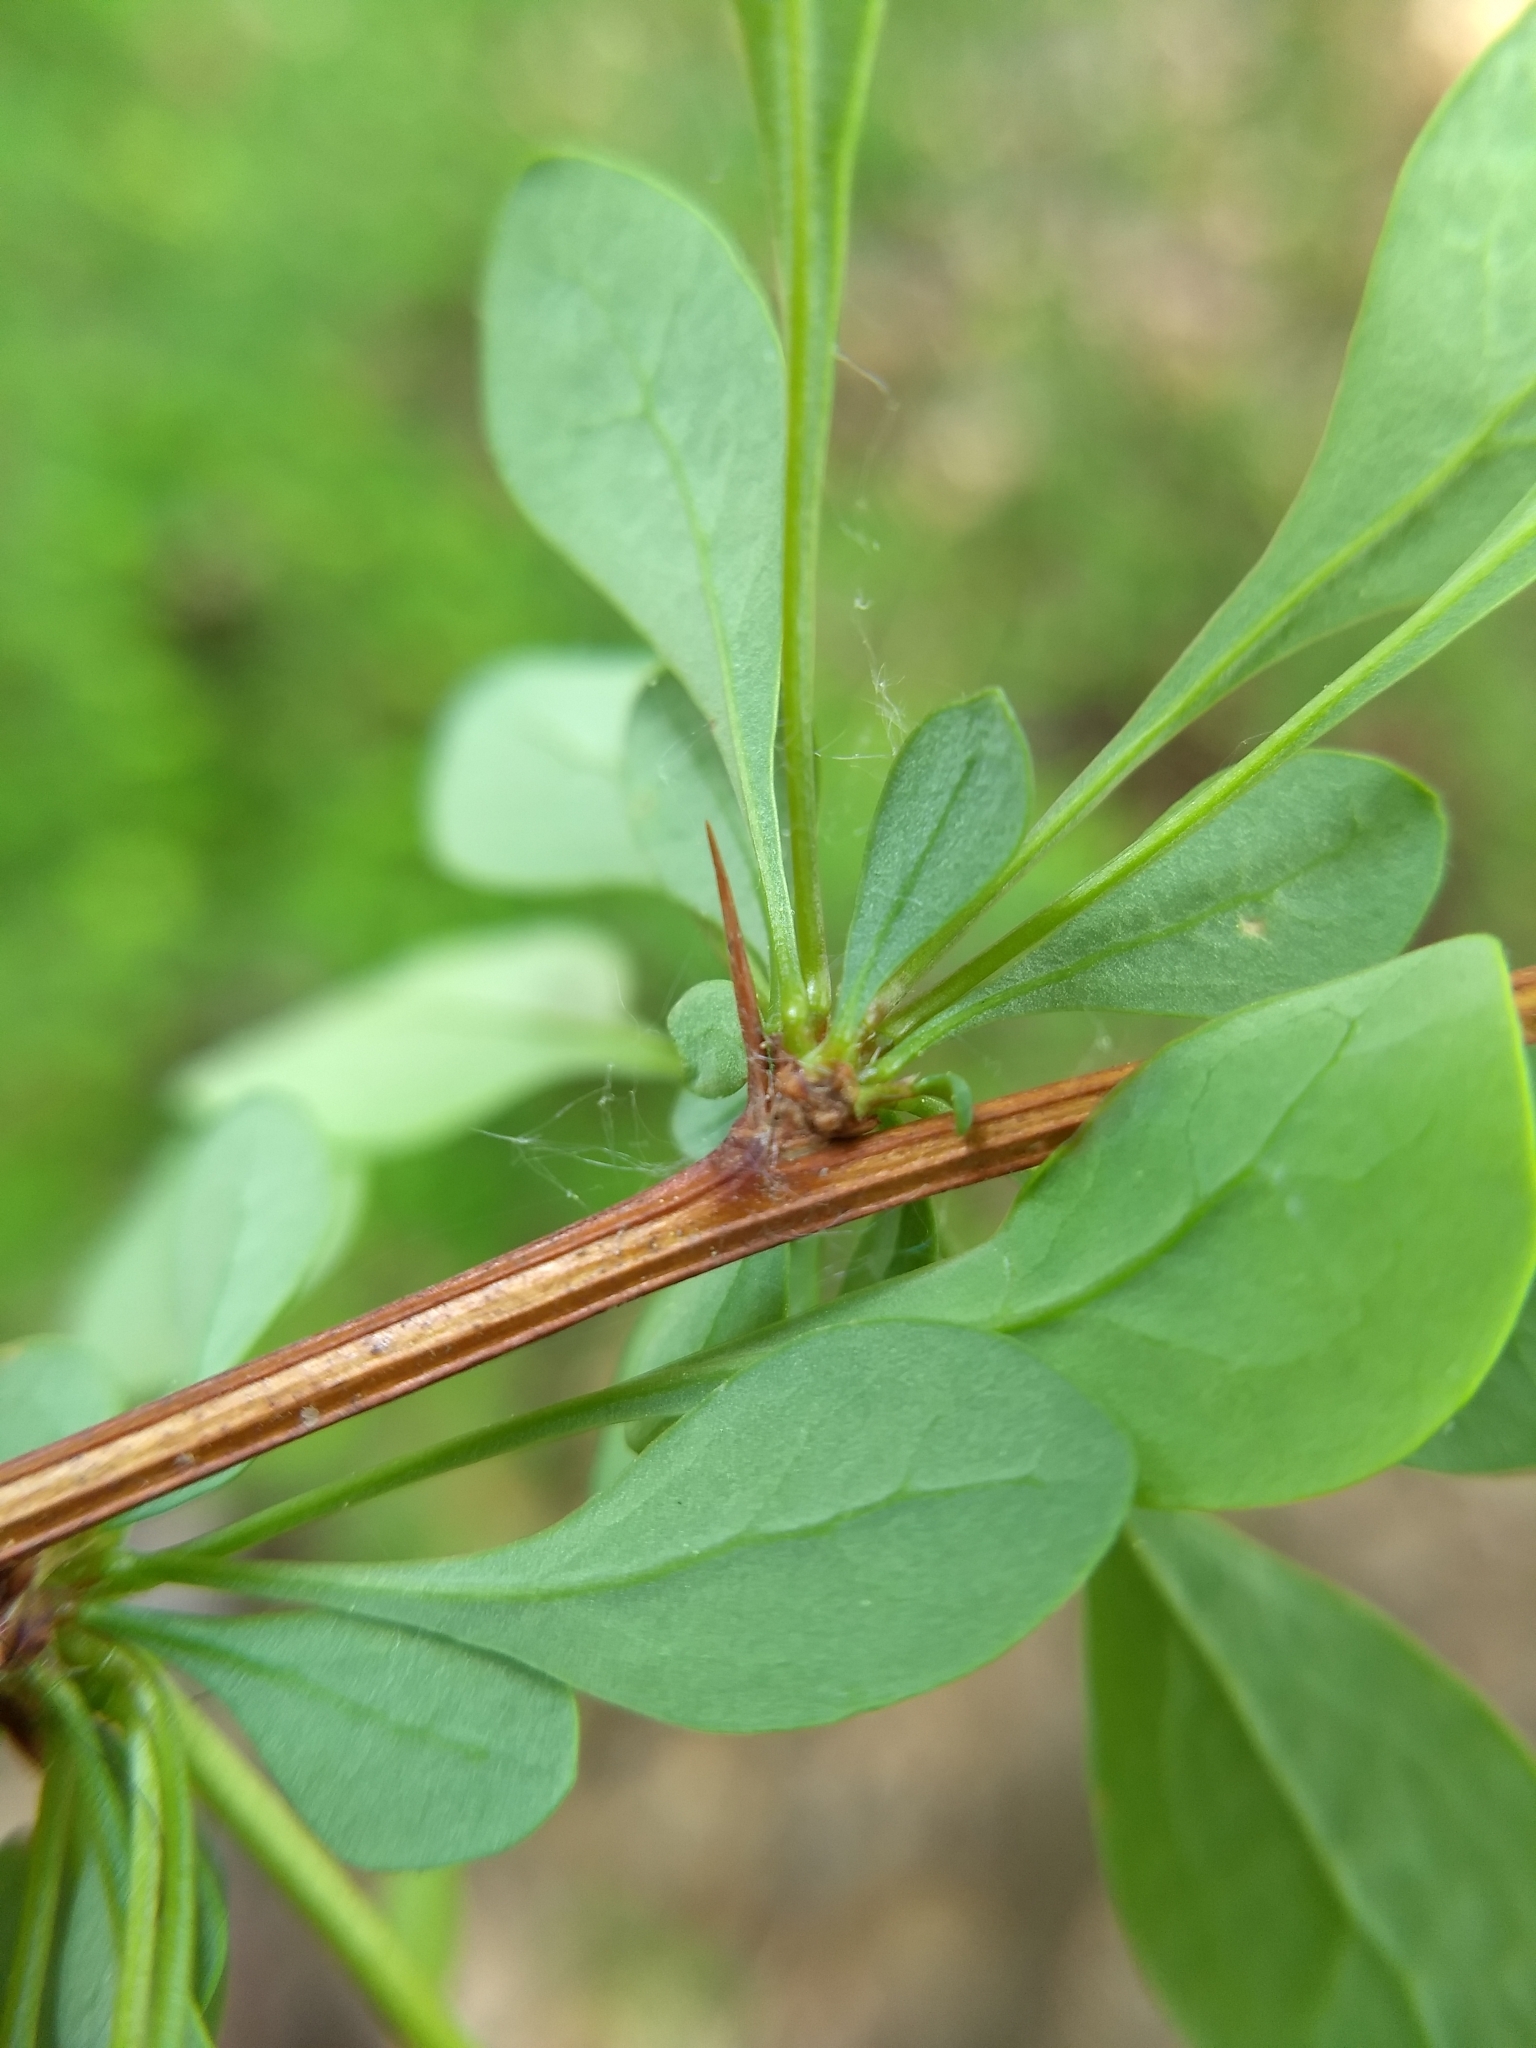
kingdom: Plantae
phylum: Tracheophyta
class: Magnoliopsida
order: Ranunculales
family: Berberidaceae
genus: Berberis
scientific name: Berberis thunbergii
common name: Japanese barberry
